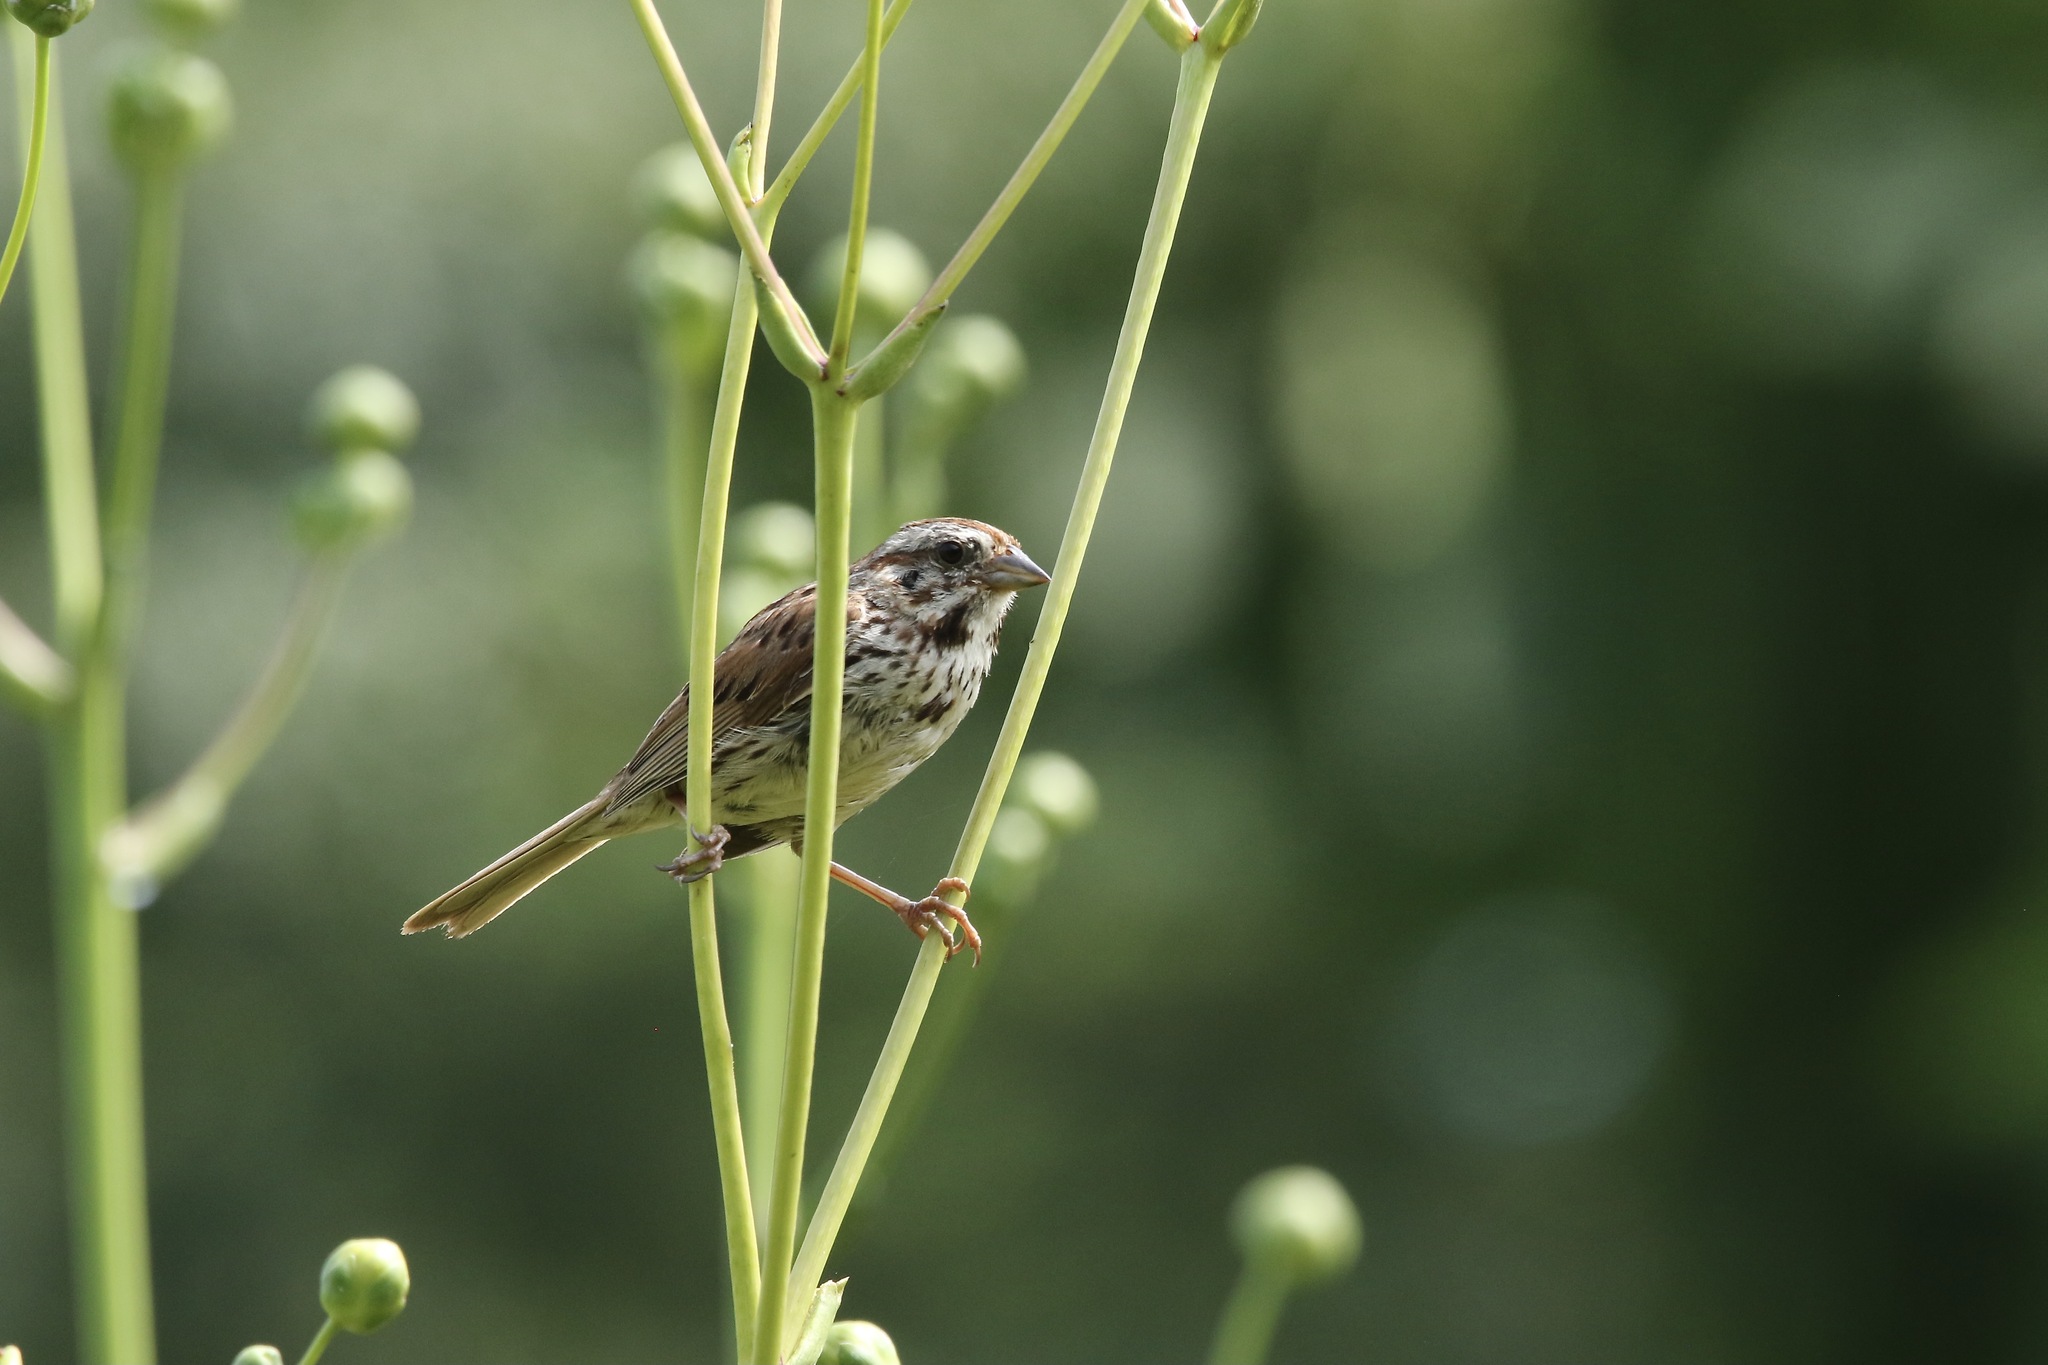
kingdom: Animalia
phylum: Chordata
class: Aves
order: Passeriformes
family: Passerellidae
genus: Melospiza
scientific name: Melospiza melodia
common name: Song sparrow
